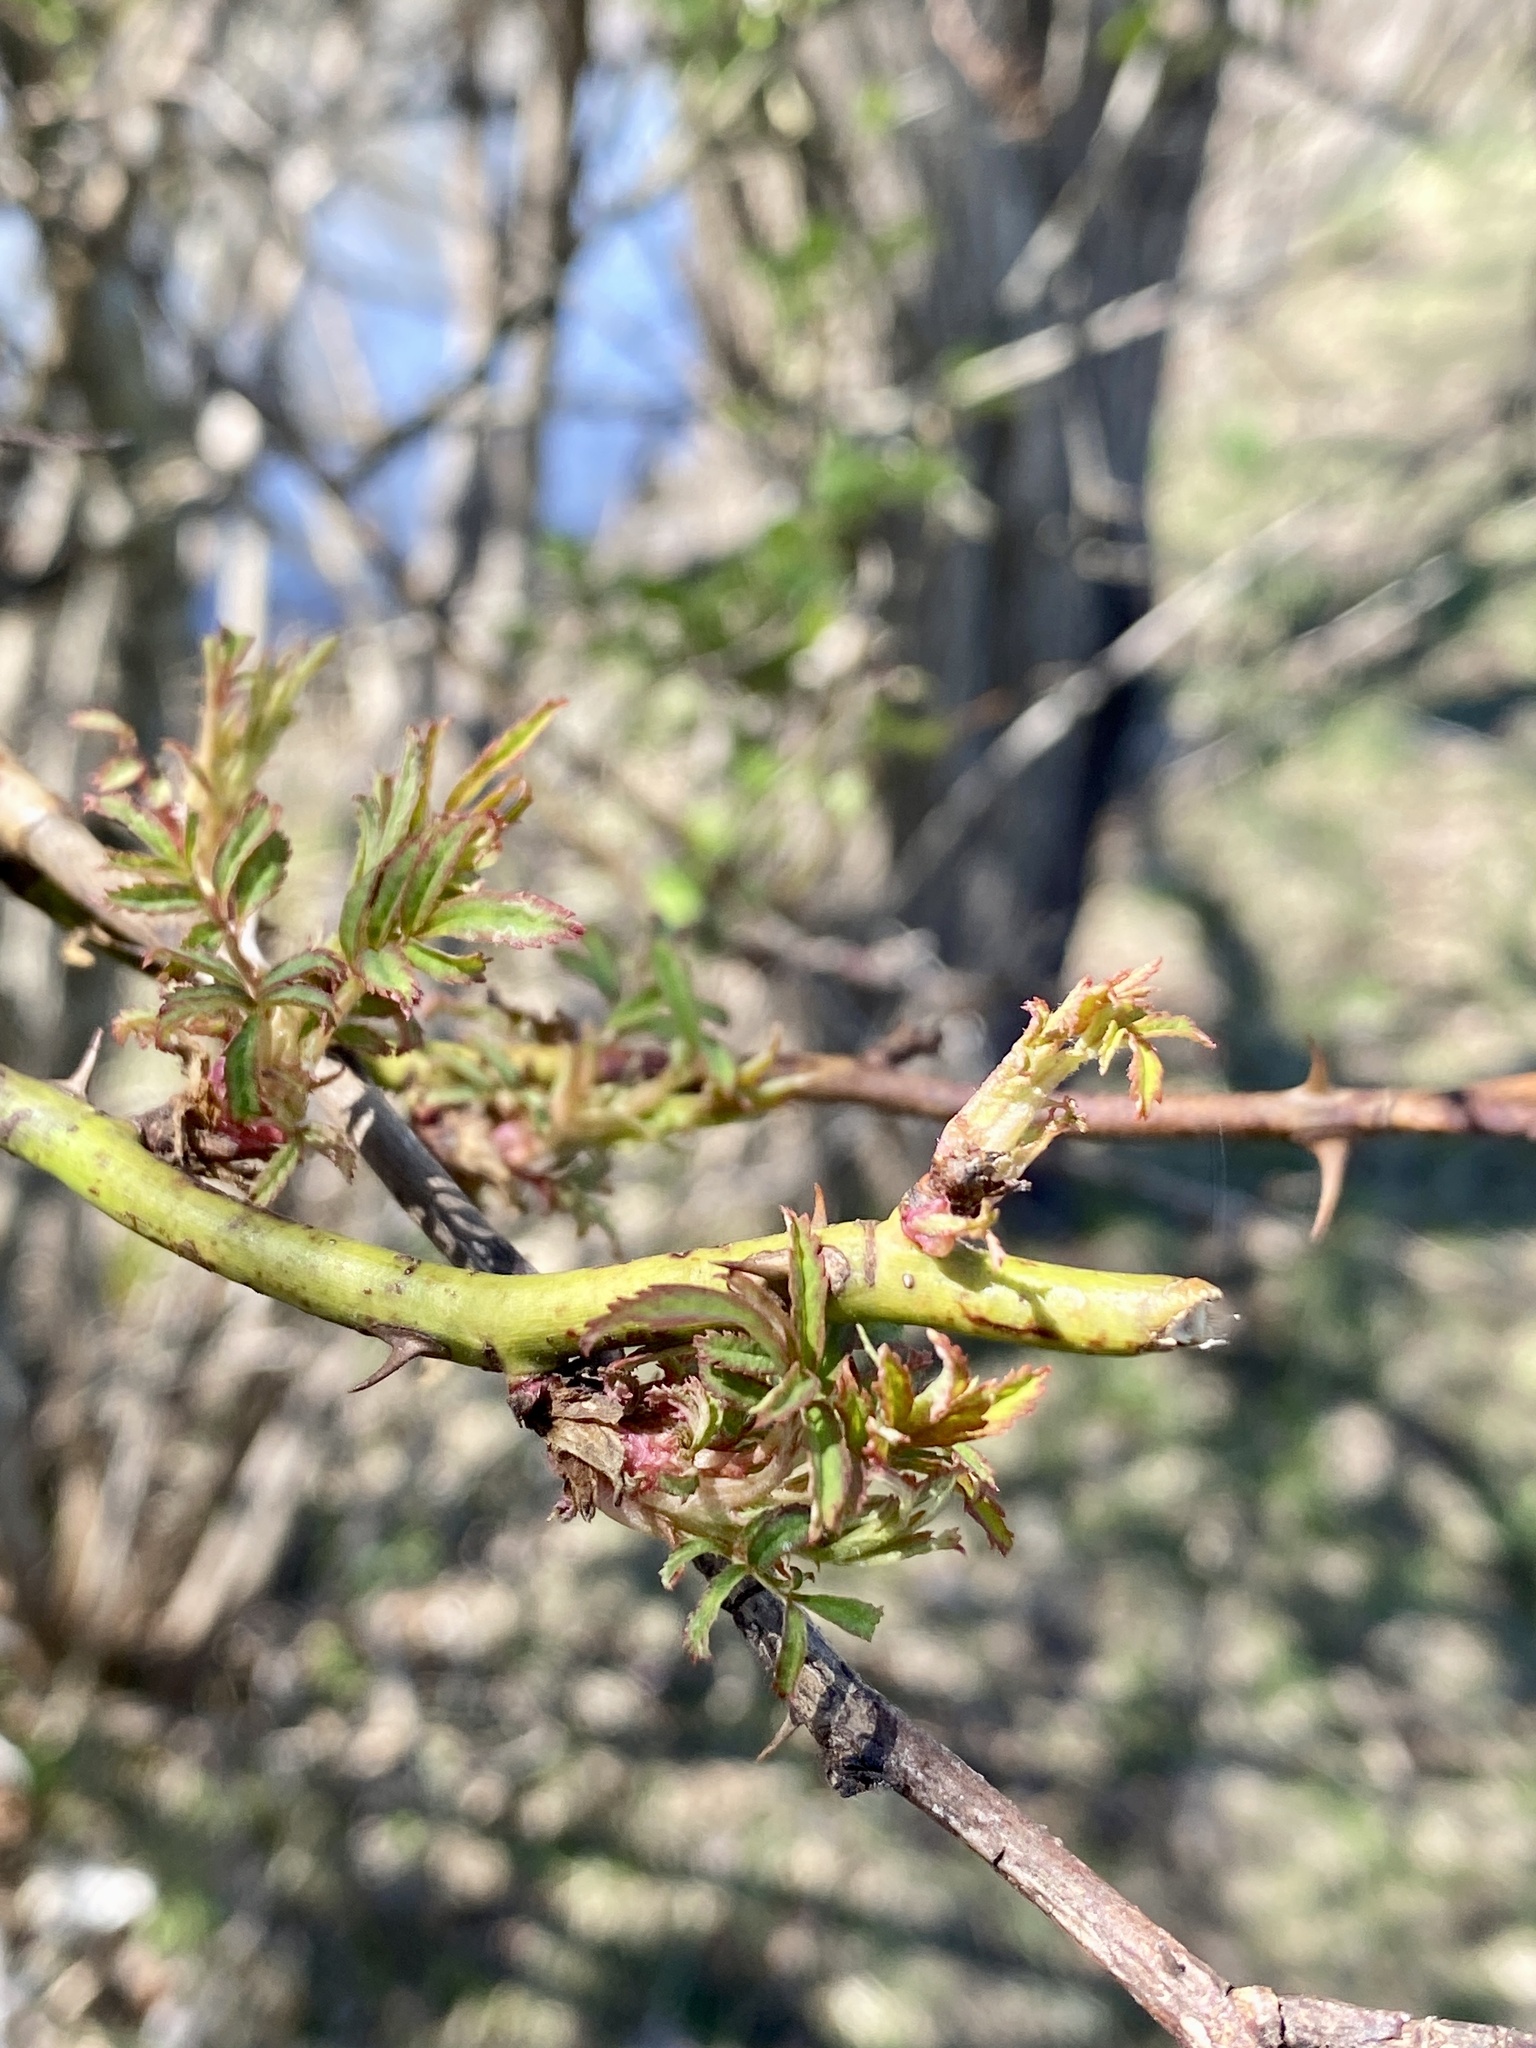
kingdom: Viruses
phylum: Negarnaviricota
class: Ellioviricetes
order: Bunyavirales
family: Fimoviridae
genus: Emaravirus
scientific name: Emaravirus rosae
